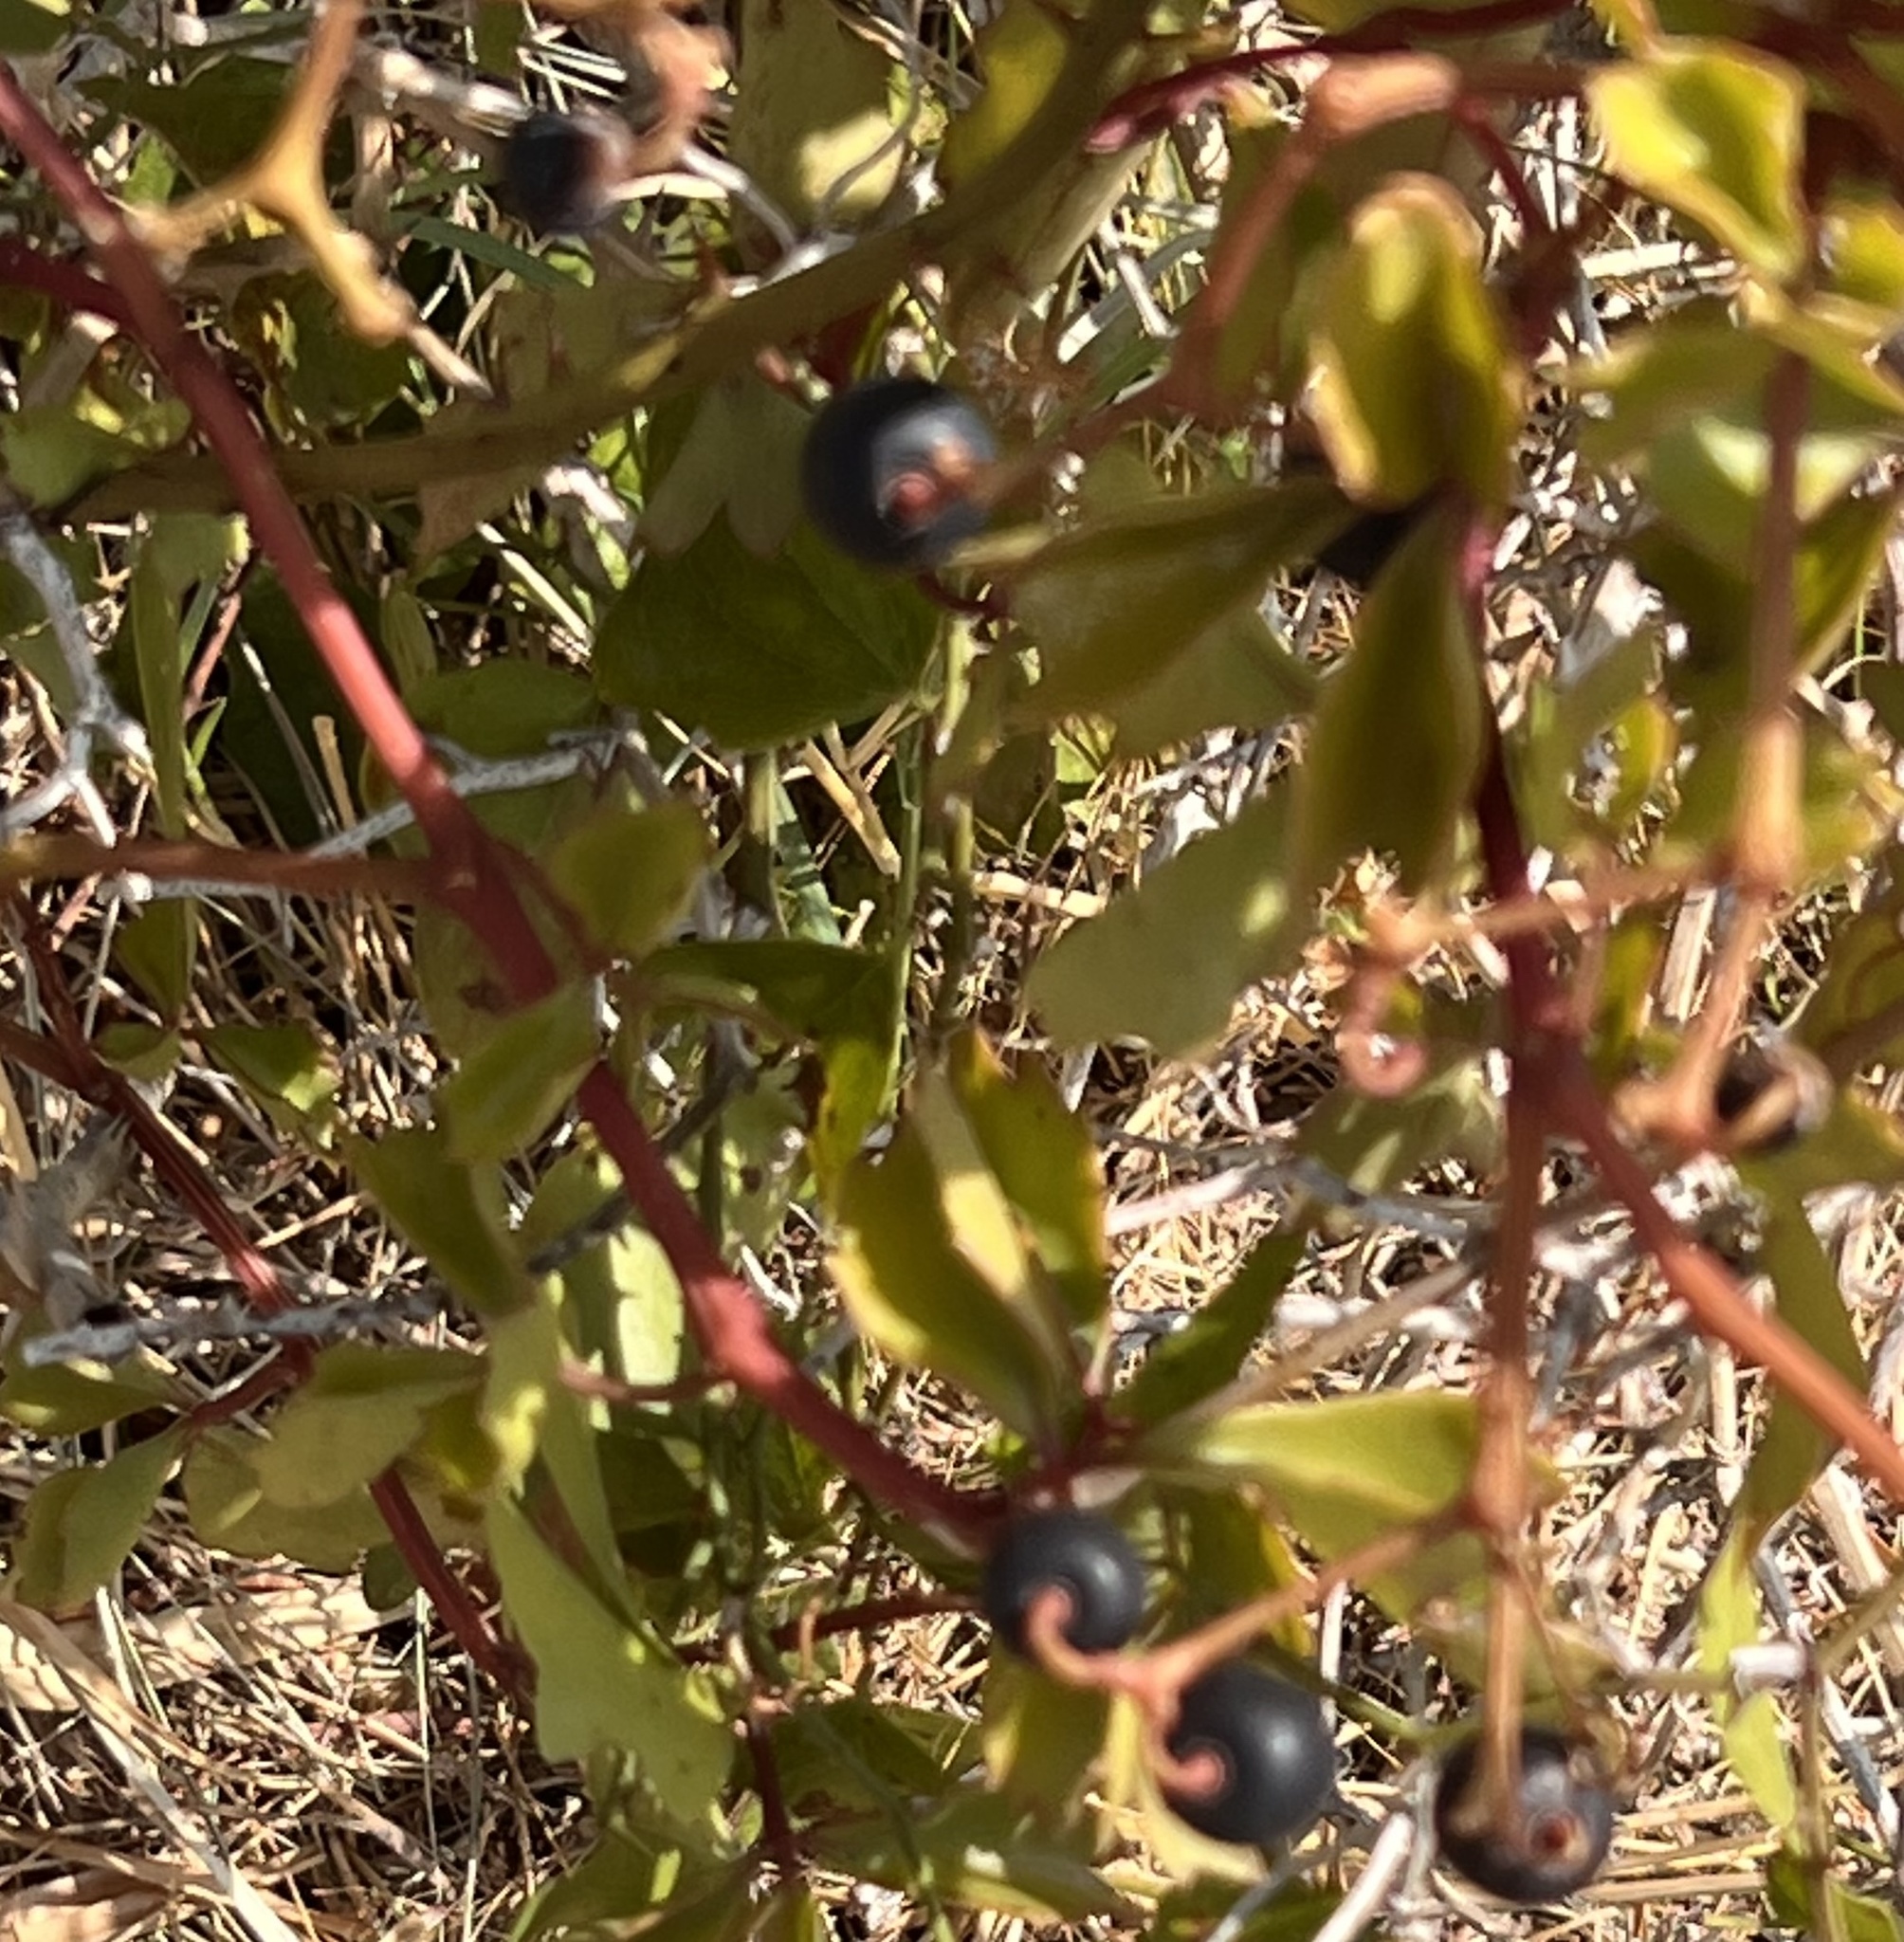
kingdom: Plantae
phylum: Tracheophyta
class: Magnoliopsida
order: Vitales
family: Vitaceae
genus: Cissus
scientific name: Cissus trifoliata
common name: Vine-sorrel
